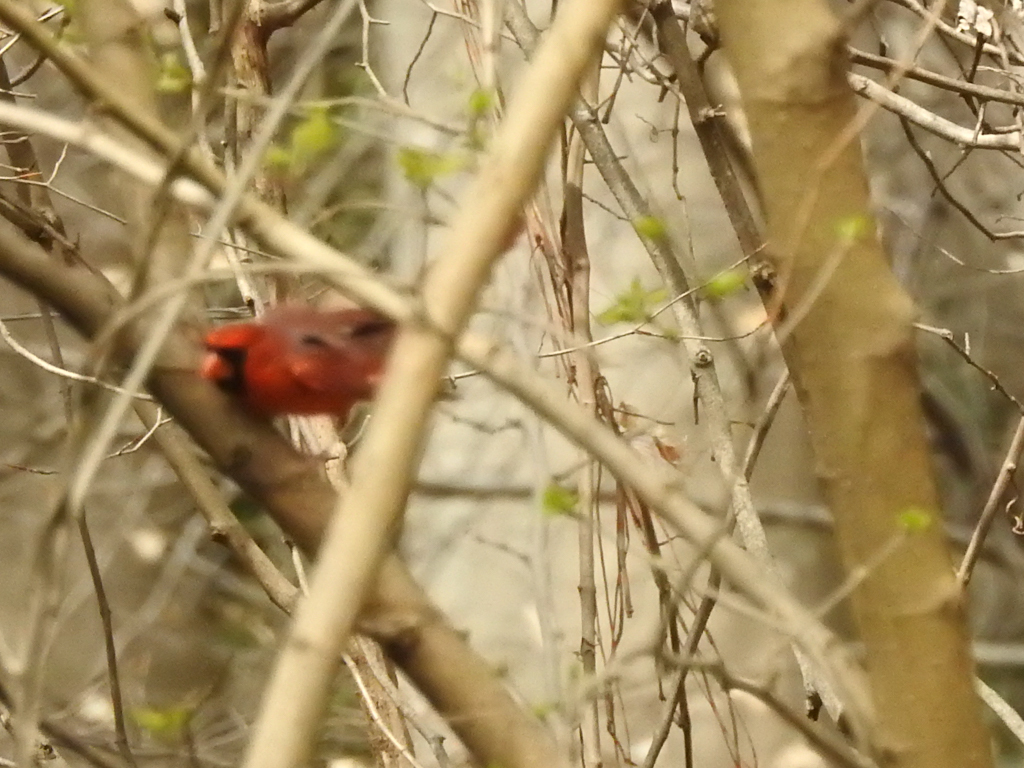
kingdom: Animalia
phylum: Chordata
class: Aves
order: Passeriformes
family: Cardinalidae
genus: Cardinalis
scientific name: Cardinalis cardinalis
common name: Northern cardinal
